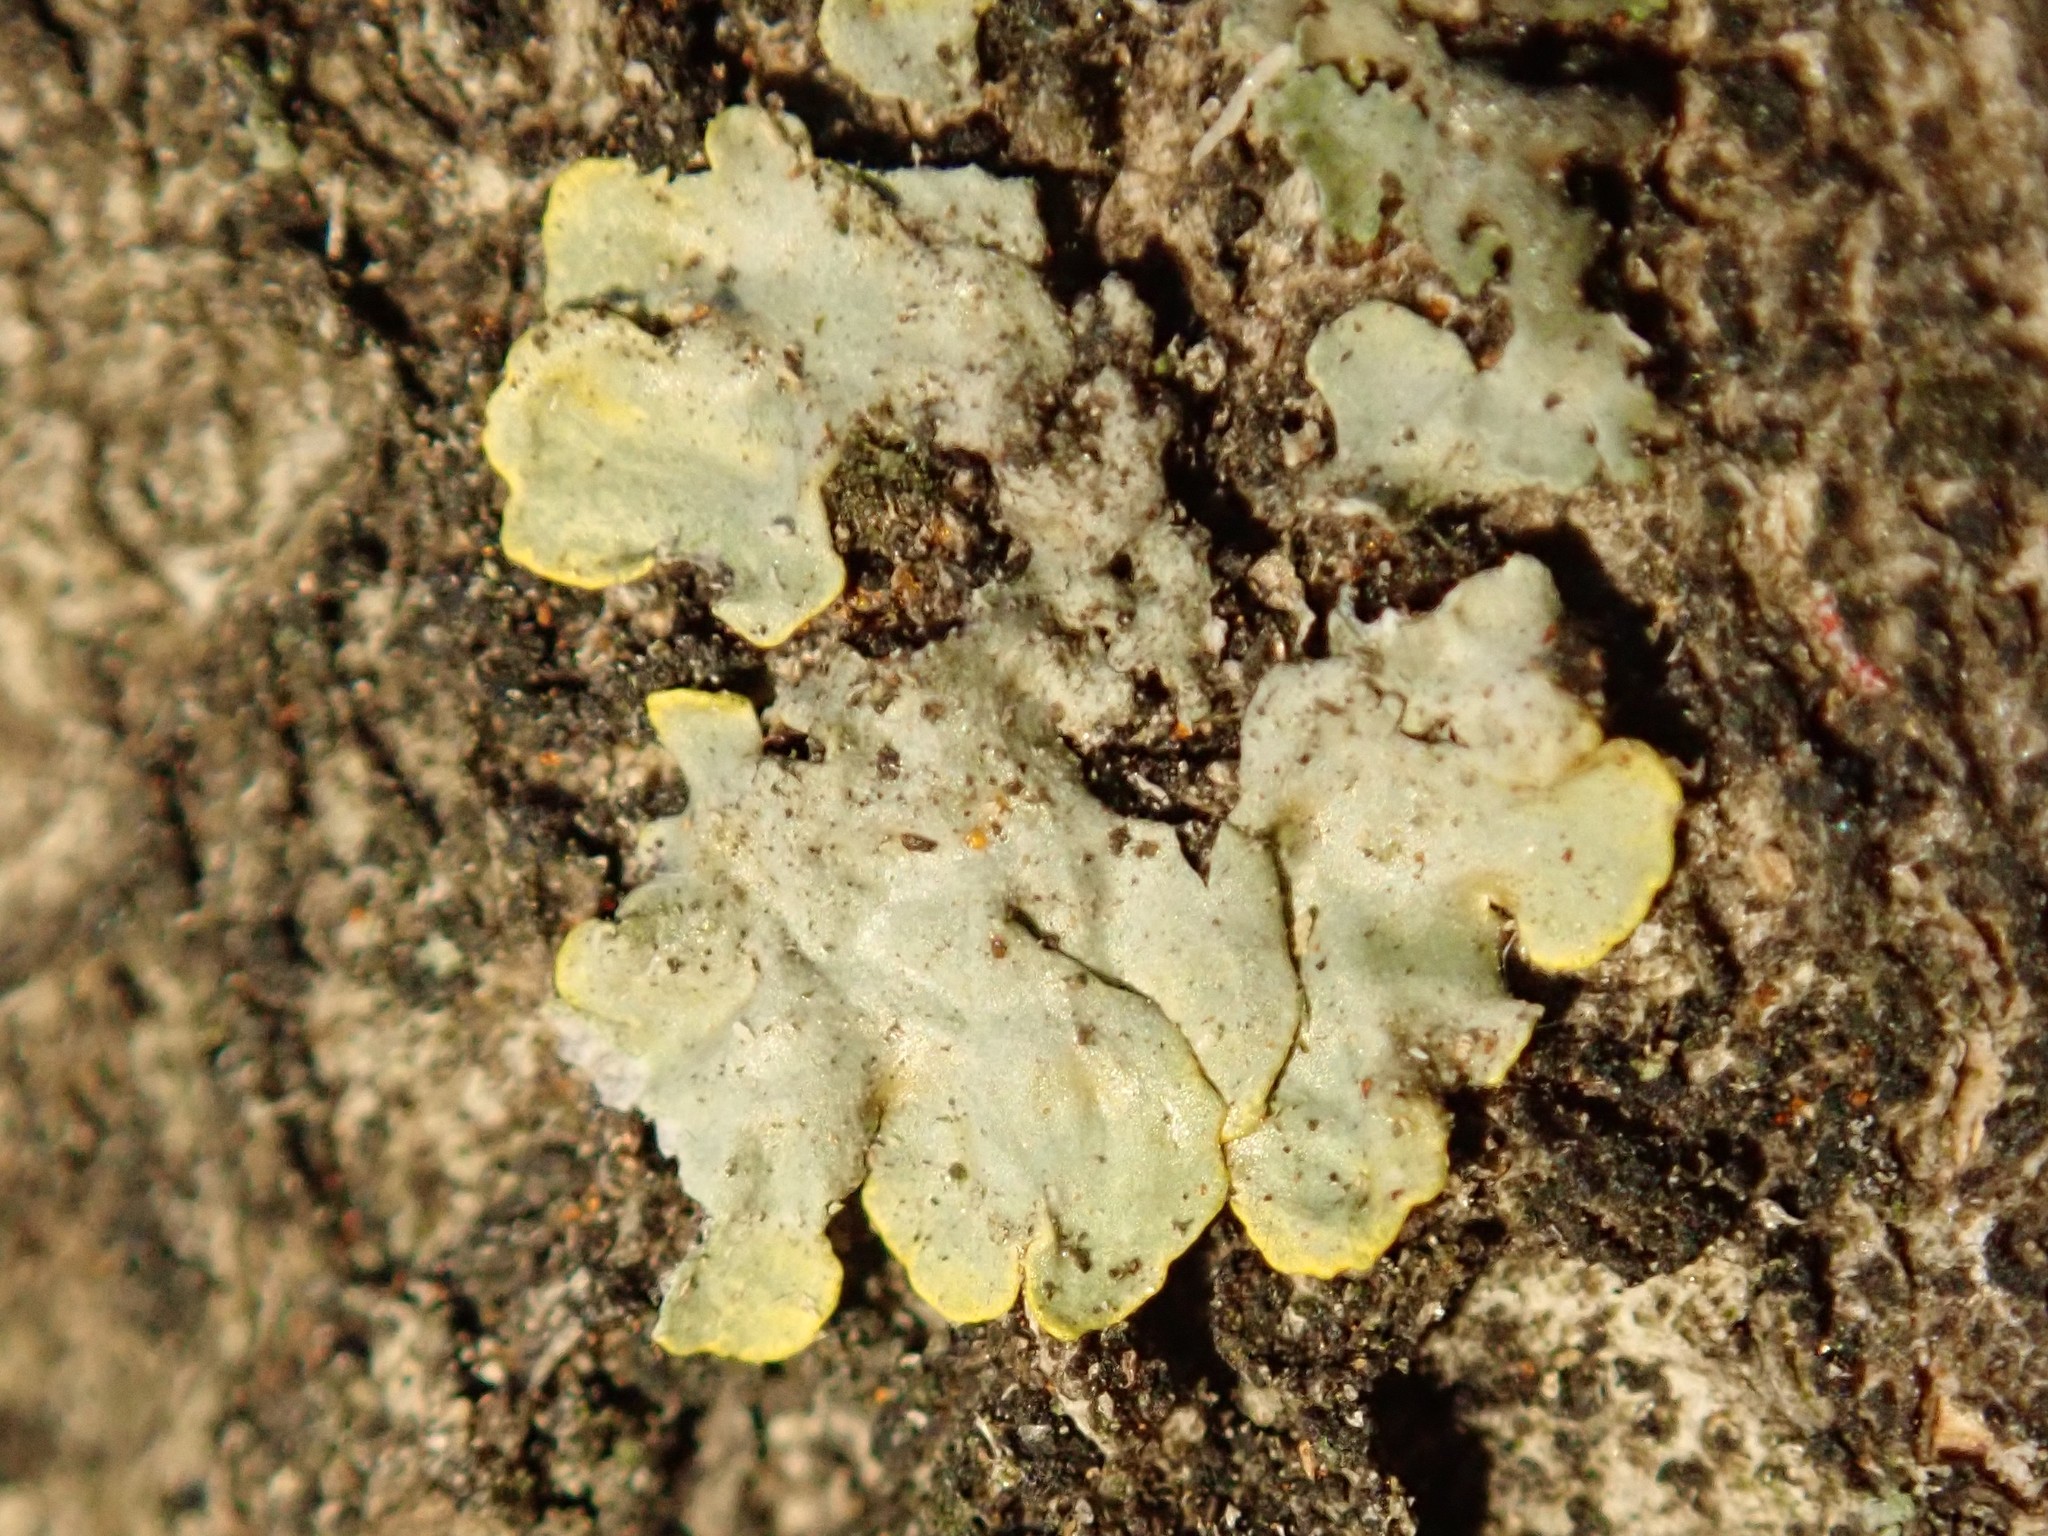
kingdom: Fungi
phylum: Ascomycota
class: Lecanoromycetes
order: Teloschistales
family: Teloschistaceae
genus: Xanthoria
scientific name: Xanthoria parietina
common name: Common orange lichen
